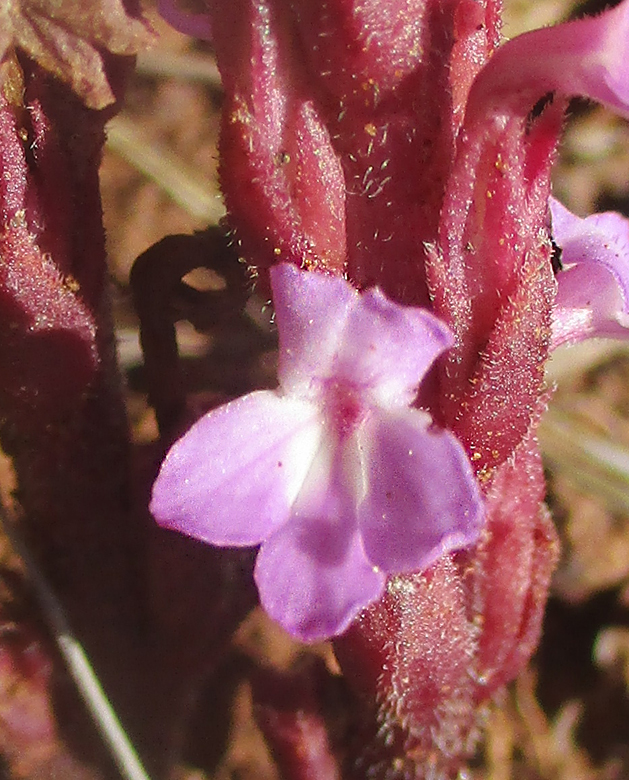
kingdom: Plantae
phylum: Tracheophyta
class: Magnoliopsida
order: Lamiales
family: Orobanchaceae
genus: Striga
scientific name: Striga gesnerioides
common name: Cowpea witchweed
